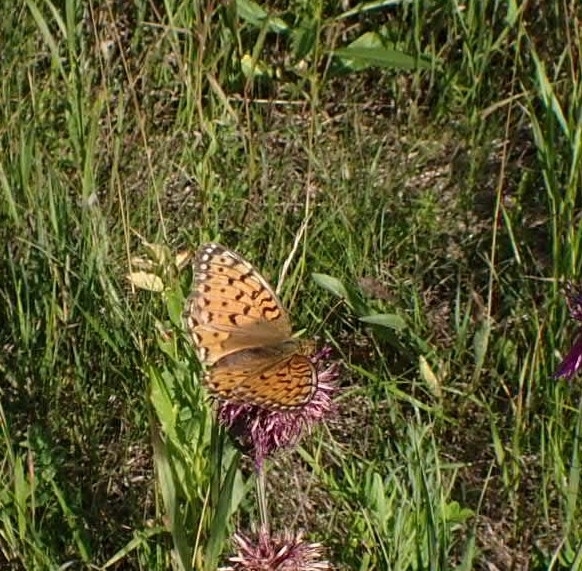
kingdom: Animalia
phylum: Arthropoda
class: Insecta
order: Lepidoptera
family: Nymphalidae
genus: Speyeria
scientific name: Speyeria aglaja
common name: Dark green fritillary
